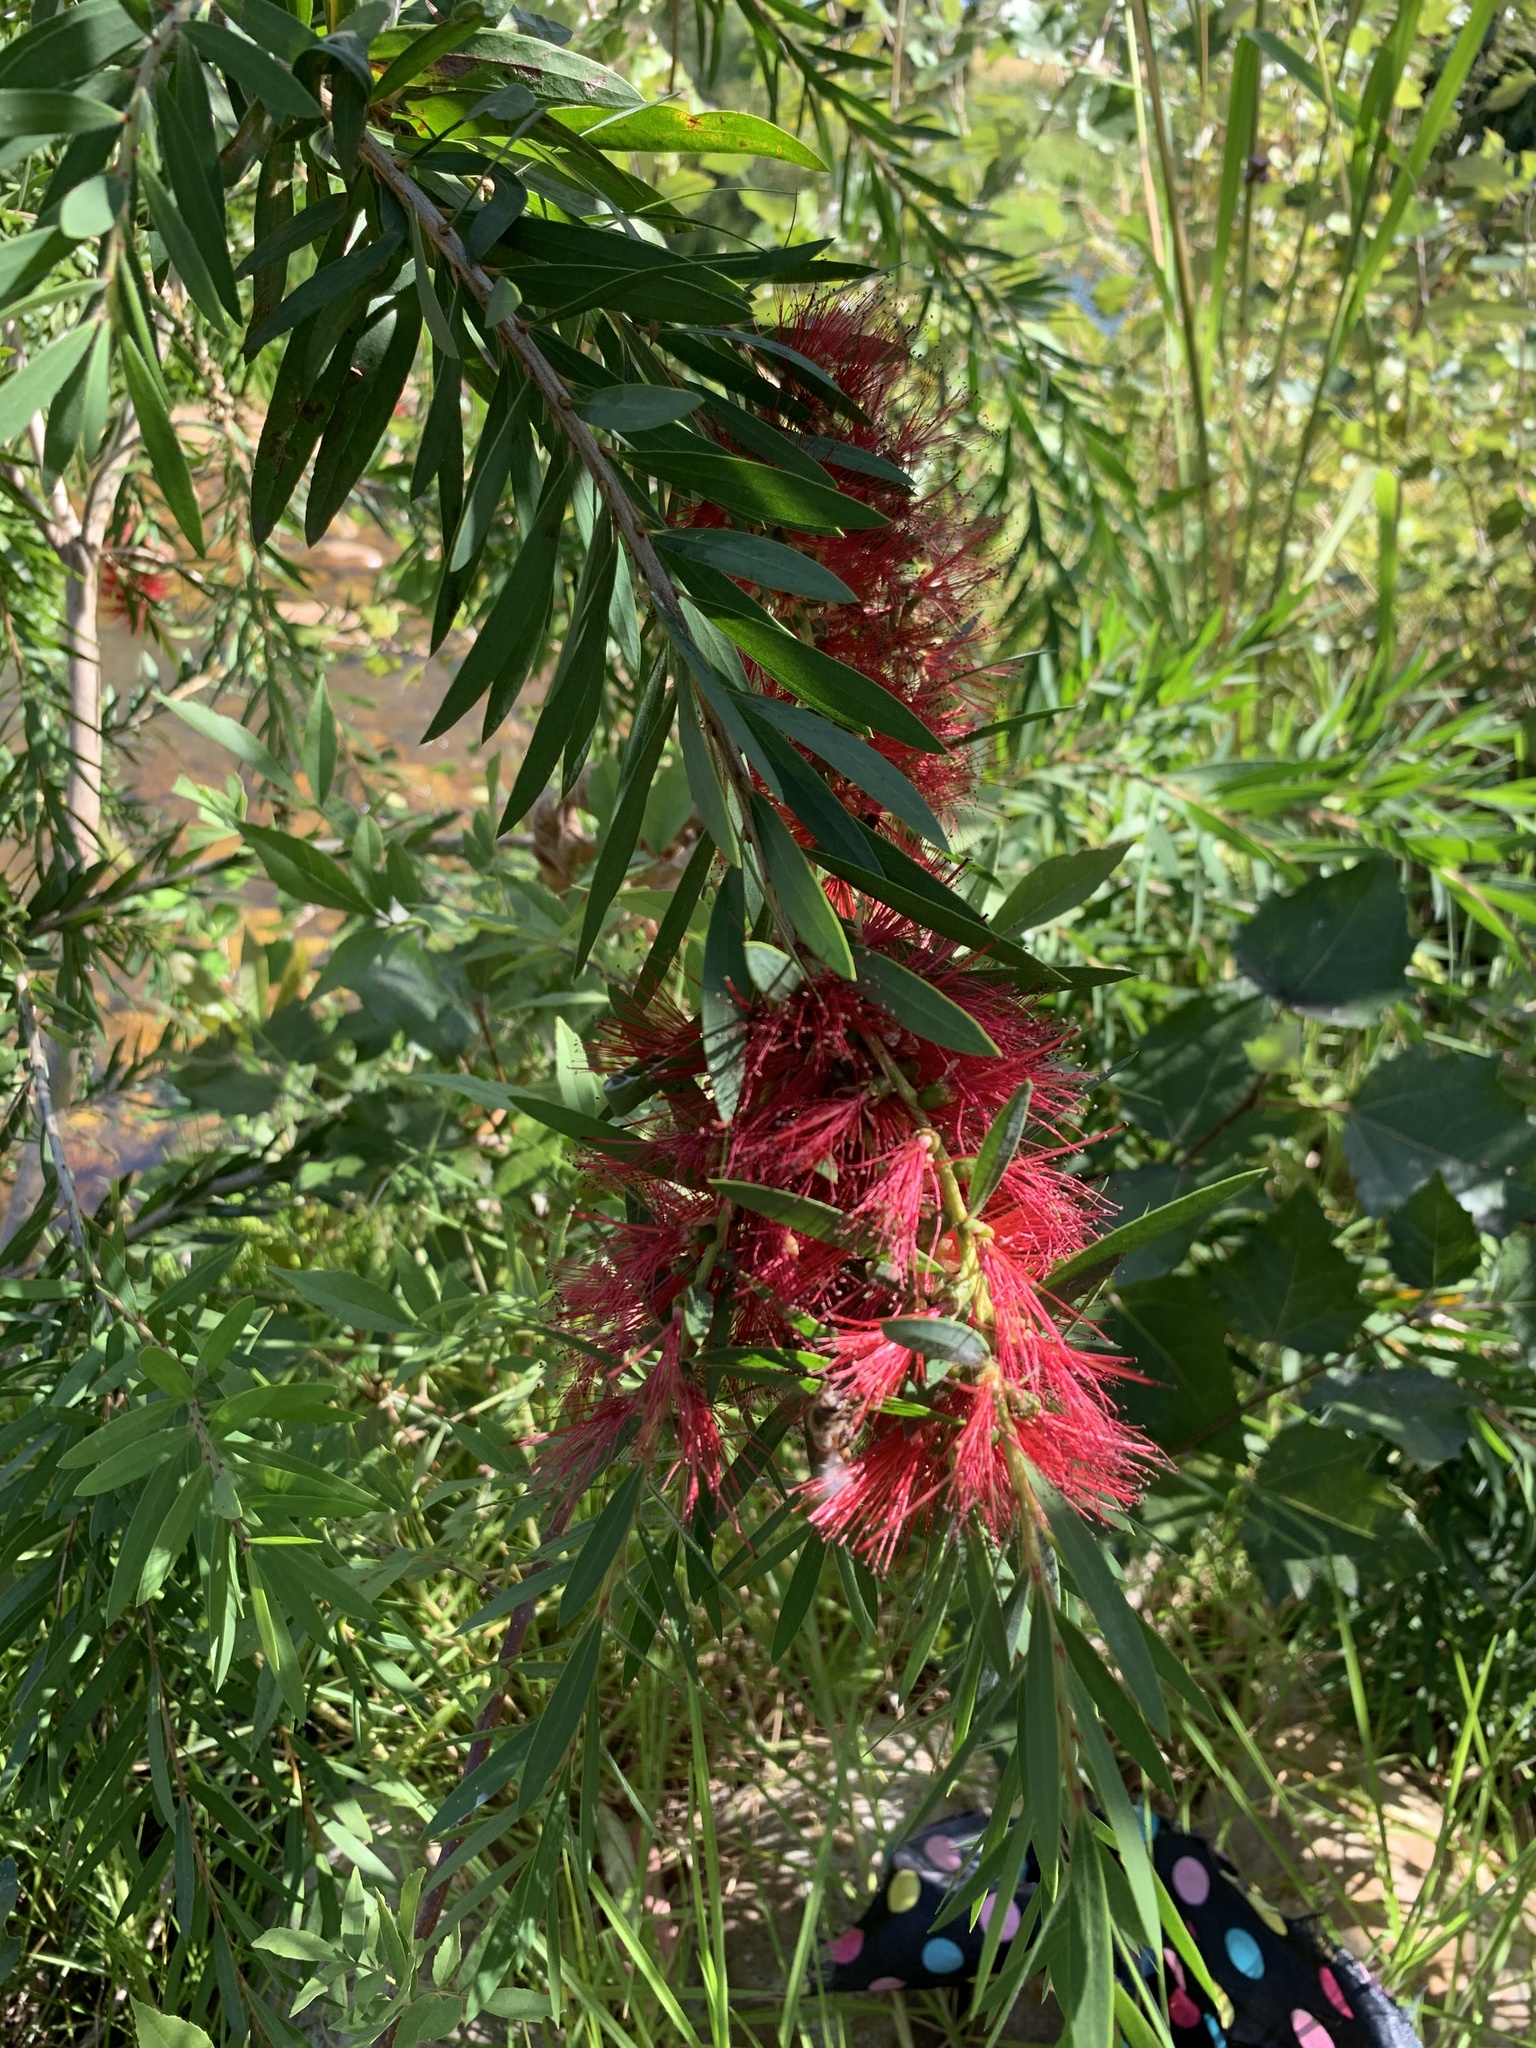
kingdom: Plantae
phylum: Tracheophyta
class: Magnoliopsida
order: Myrtales
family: Myrtaceae
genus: Callistemon
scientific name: Callistemon viminalis
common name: Drooping bottlebrush
